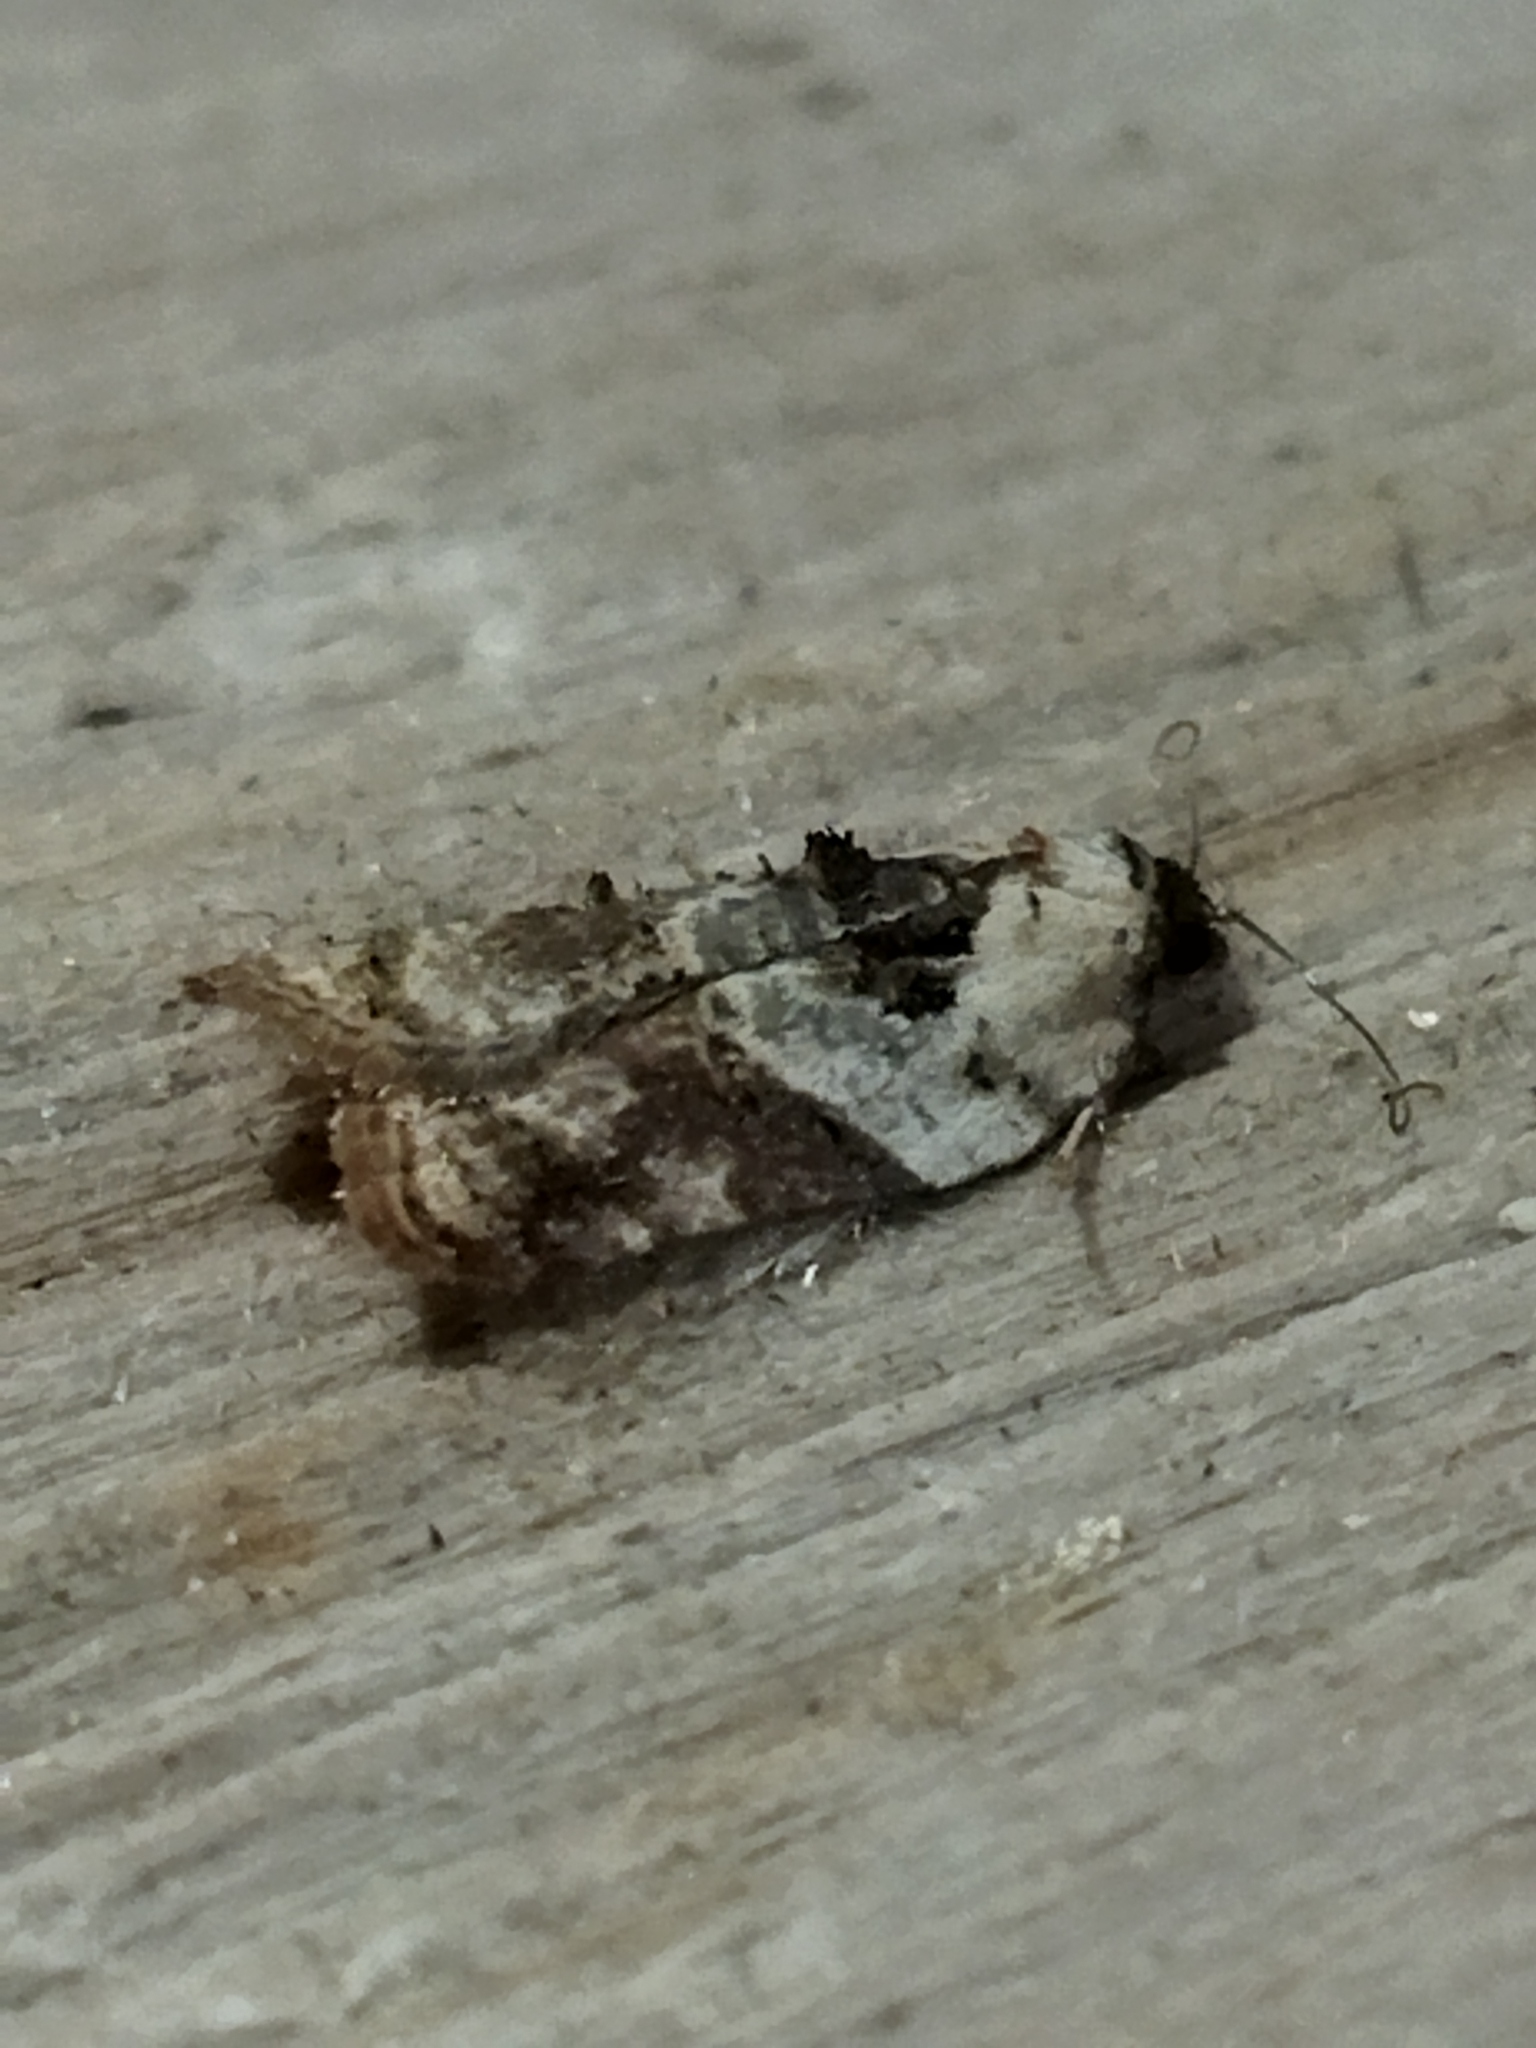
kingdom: Animalia
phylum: Arthropoda
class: Insecta
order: Lepidoptera
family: Tortricidae
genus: Acleris
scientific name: Acleris variegana
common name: Garden rose tortrix
